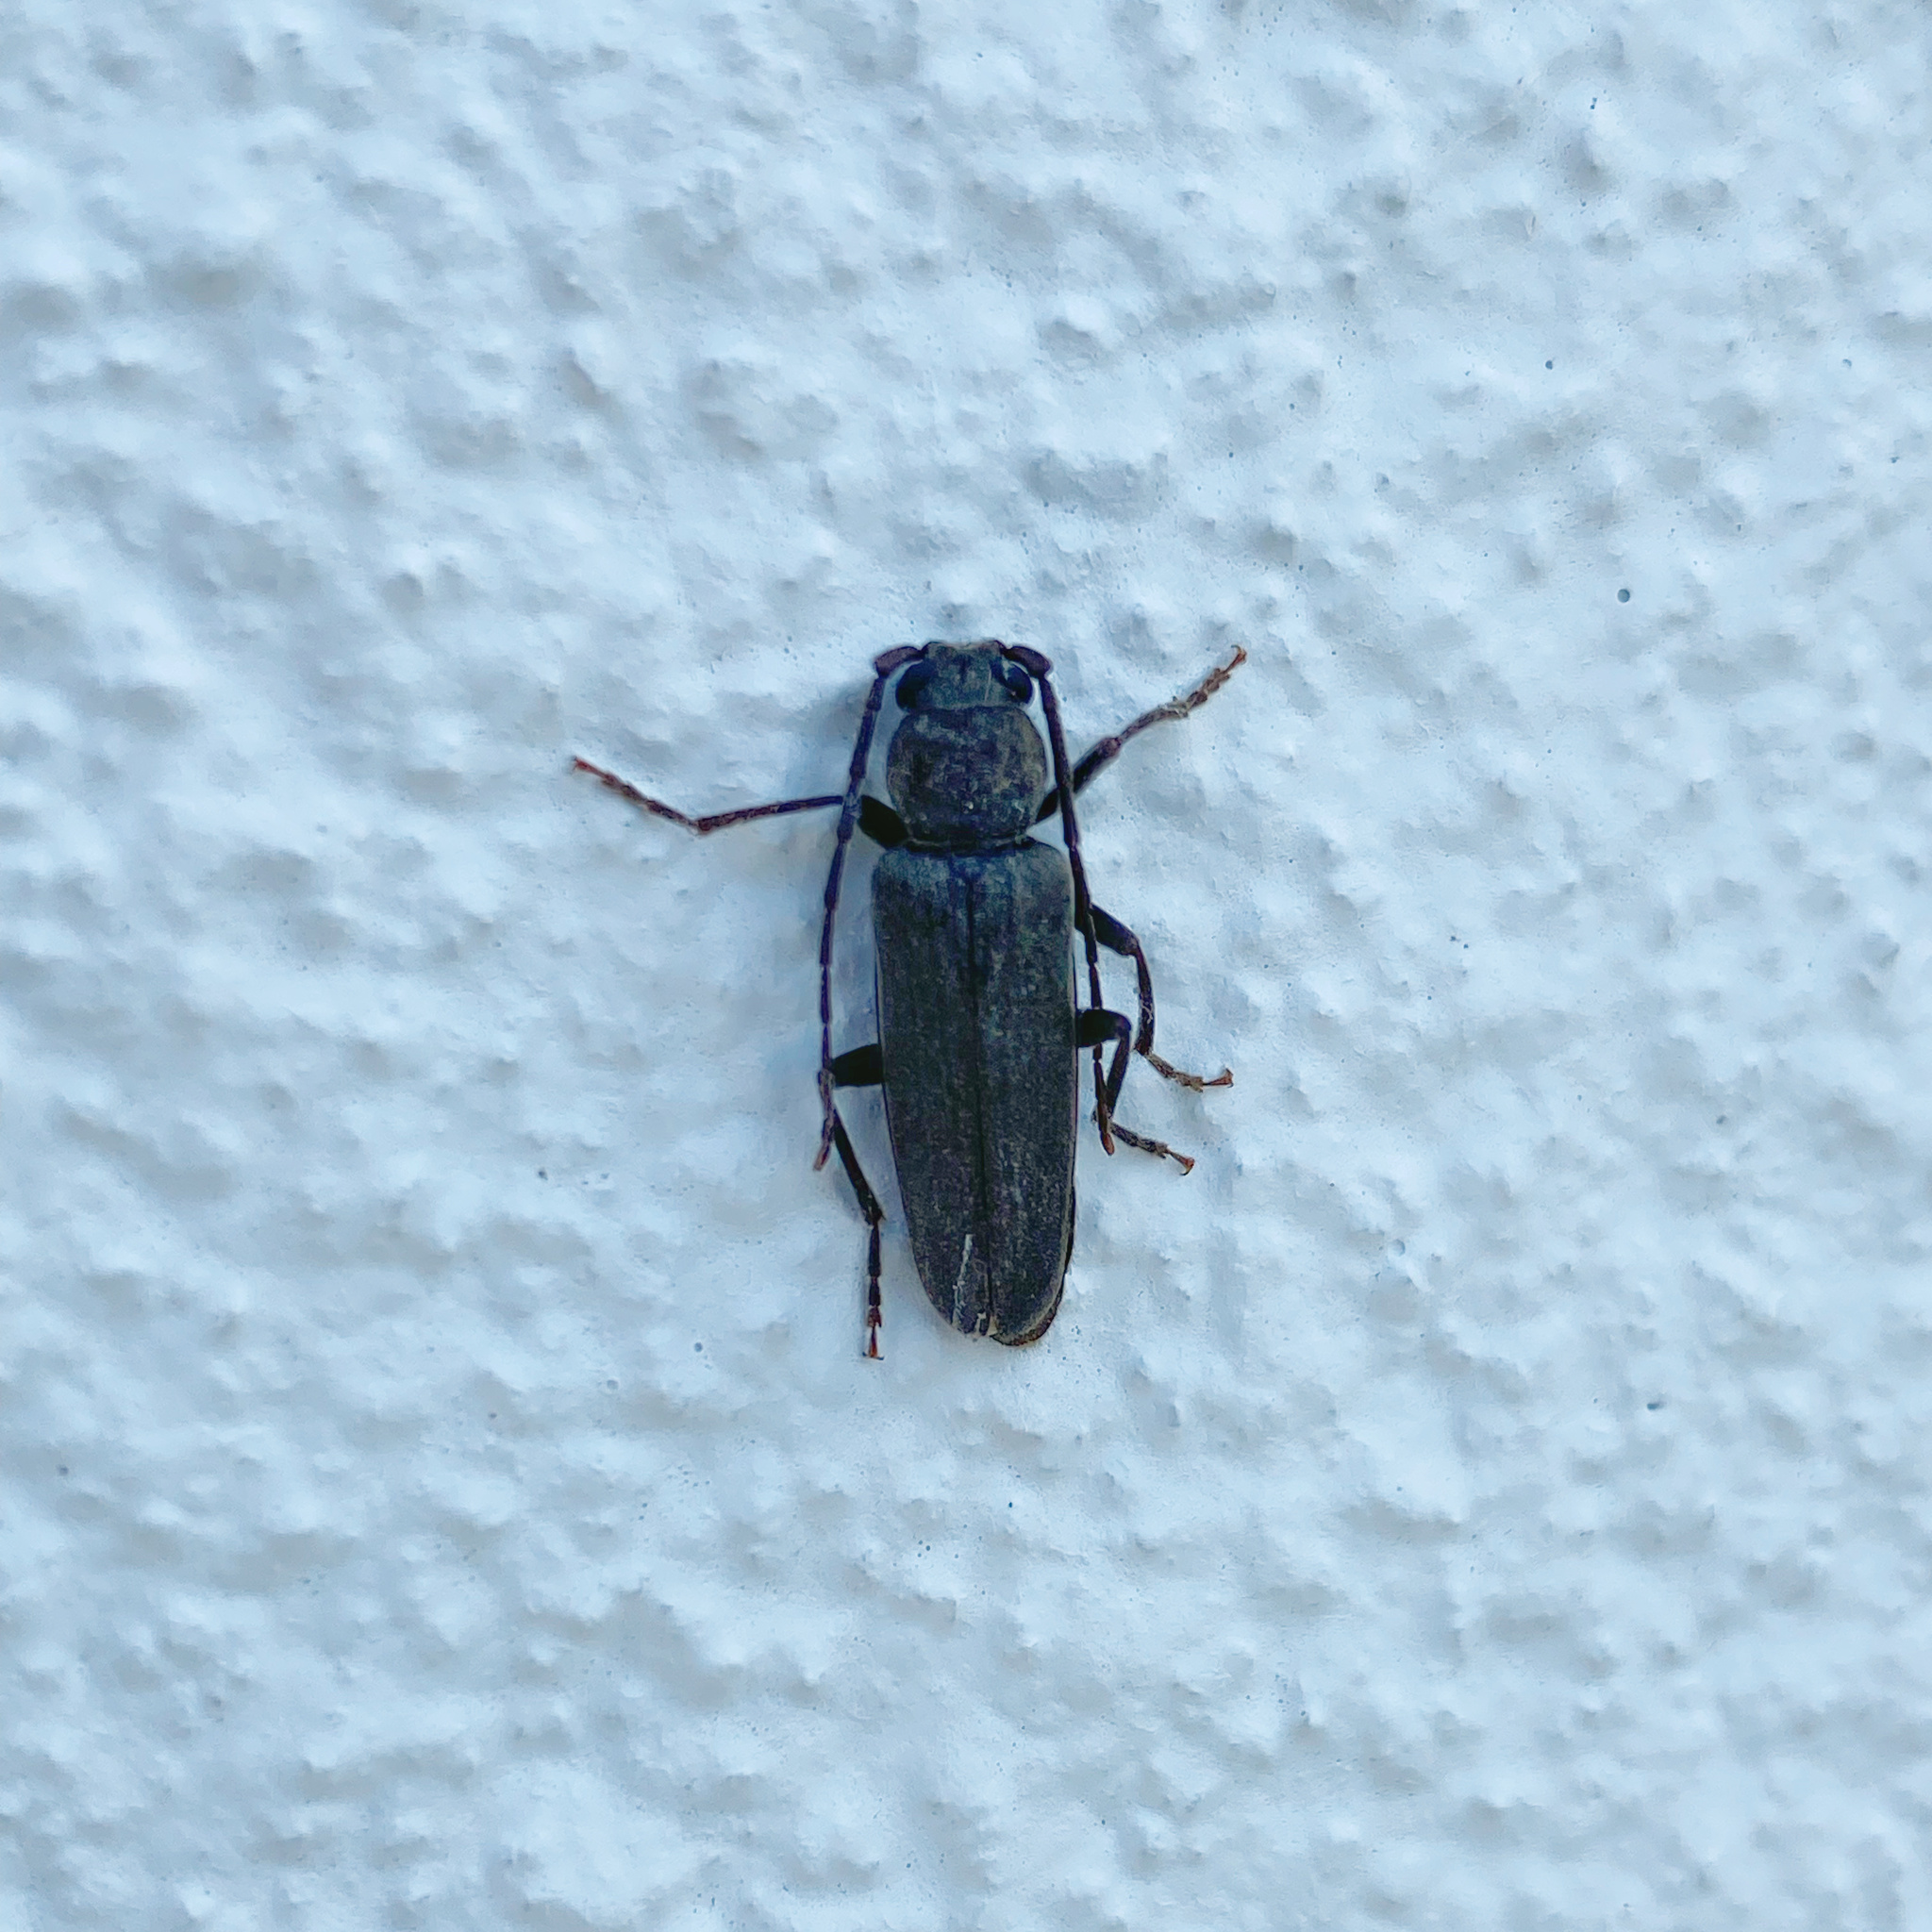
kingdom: Animalia
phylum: Arthropoda
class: Insecta
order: Coleoptera
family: Cerambycidae
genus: Arhopalus
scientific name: Arhopalus ferus
